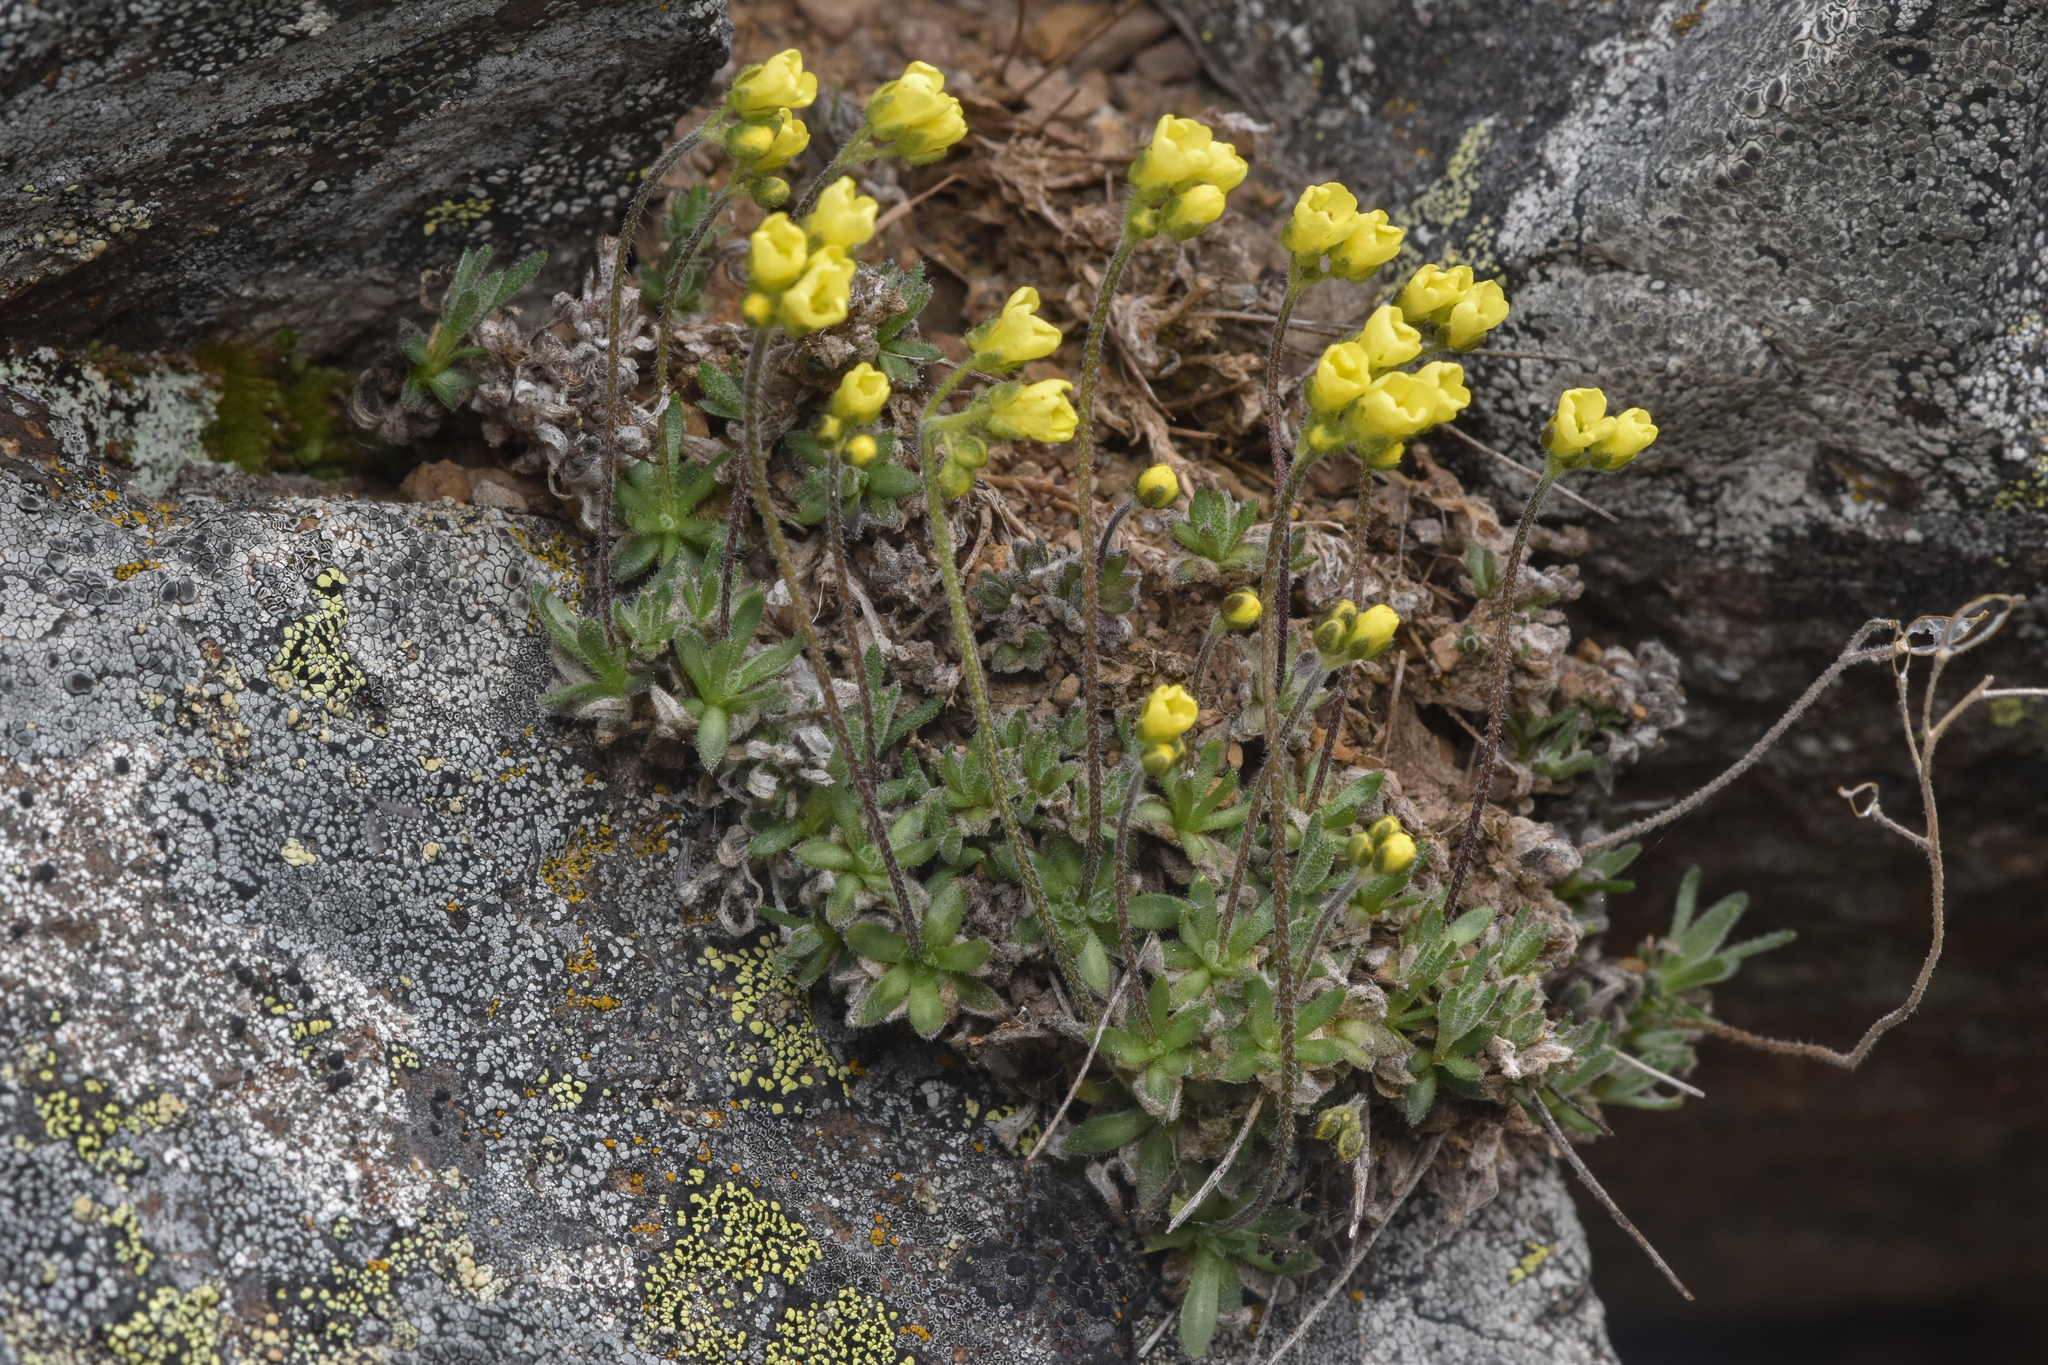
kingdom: Plantae
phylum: Tracheophyta
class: Magnoliopsida
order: Brassicales
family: Brassicaceae
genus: Draba
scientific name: Draba oligosperma
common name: Few-seed draba
